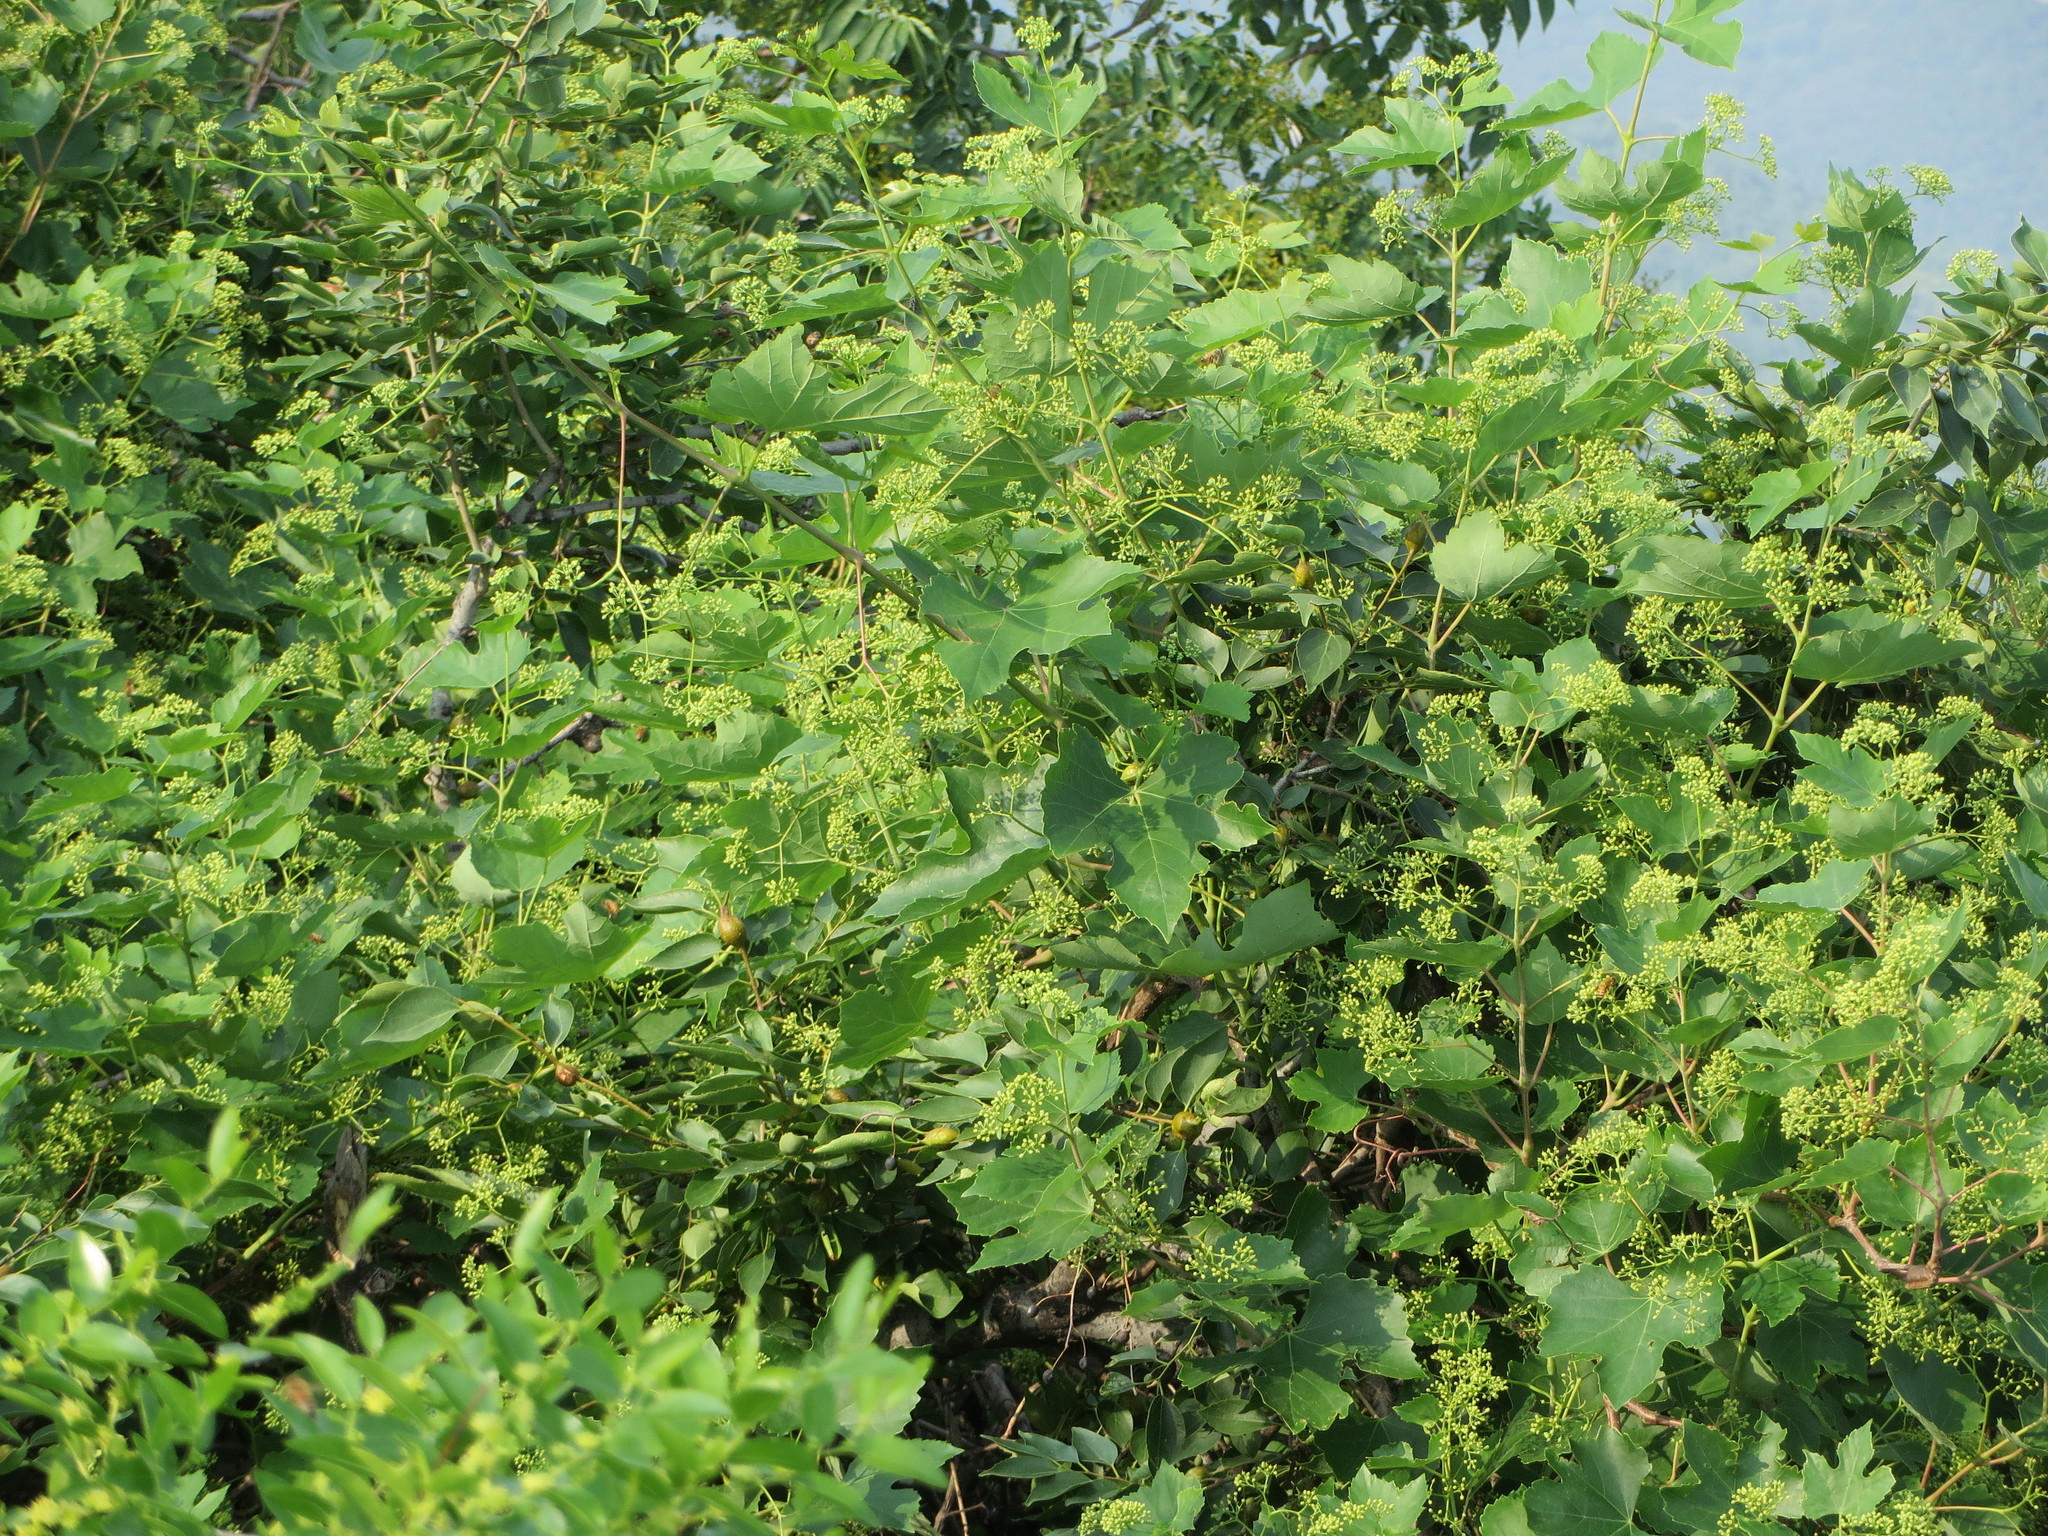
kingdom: Plantae
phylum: Tracheophyta
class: Magnoliopsida
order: Vitales
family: Vitaceae
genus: Ampelopsis
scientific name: Ampelopsis humulifolia
